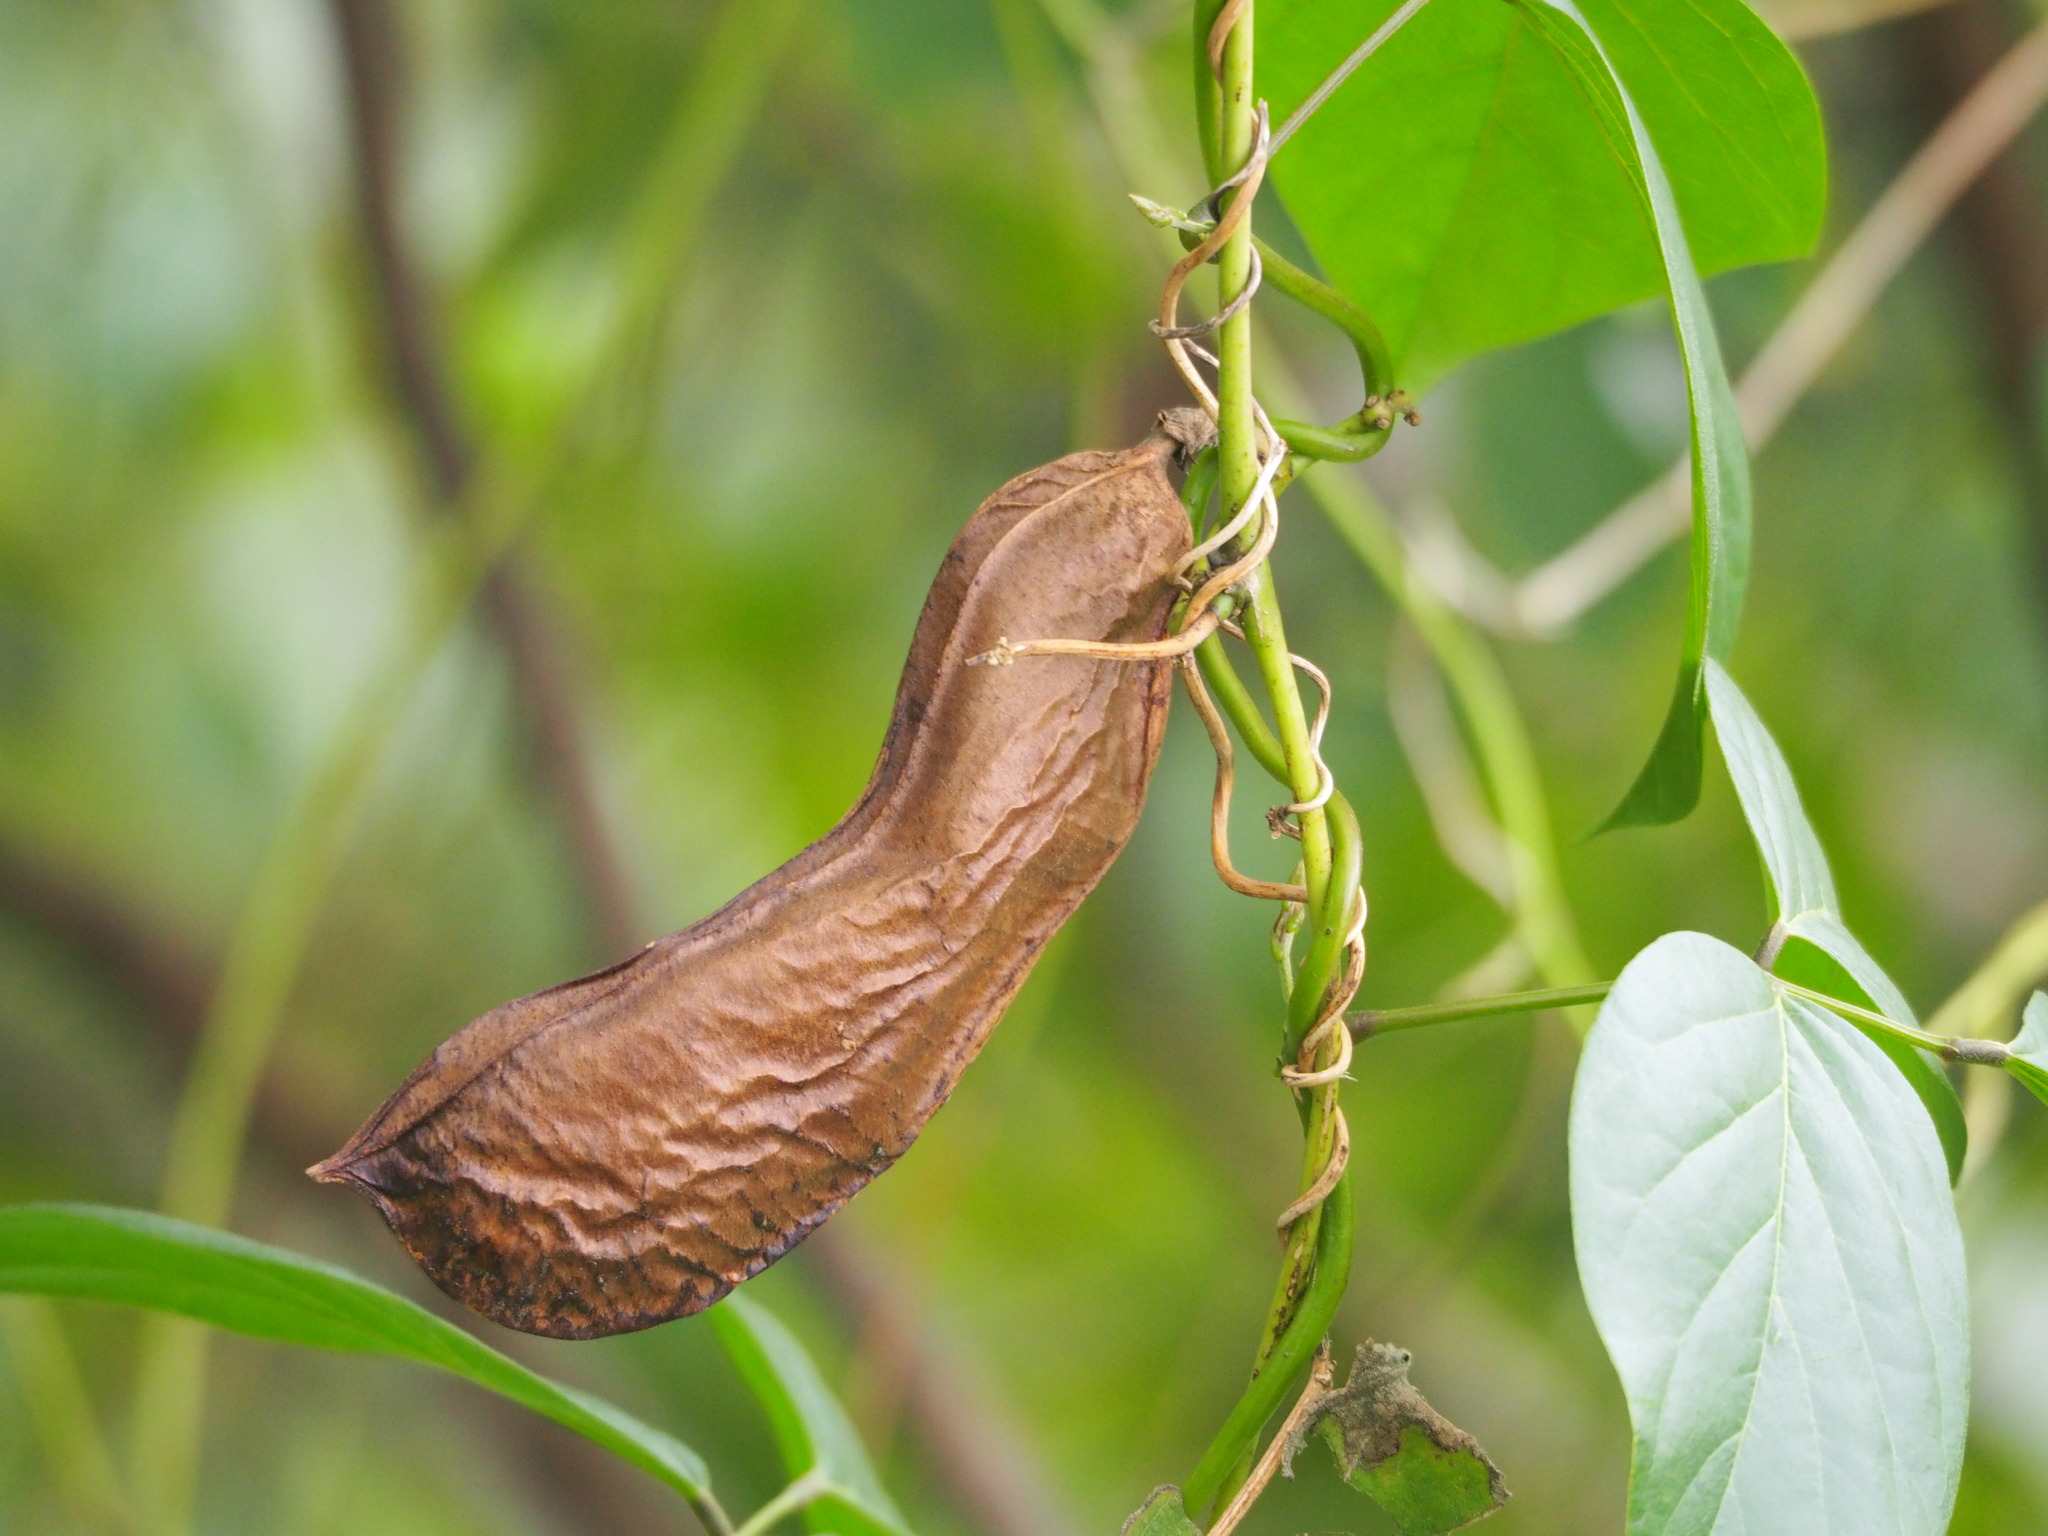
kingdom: Plantae
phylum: Tracheophyta
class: Magnoliopsida
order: Fabales
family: Fabaceae
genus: Canavalia
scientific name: Canavalia lineata
